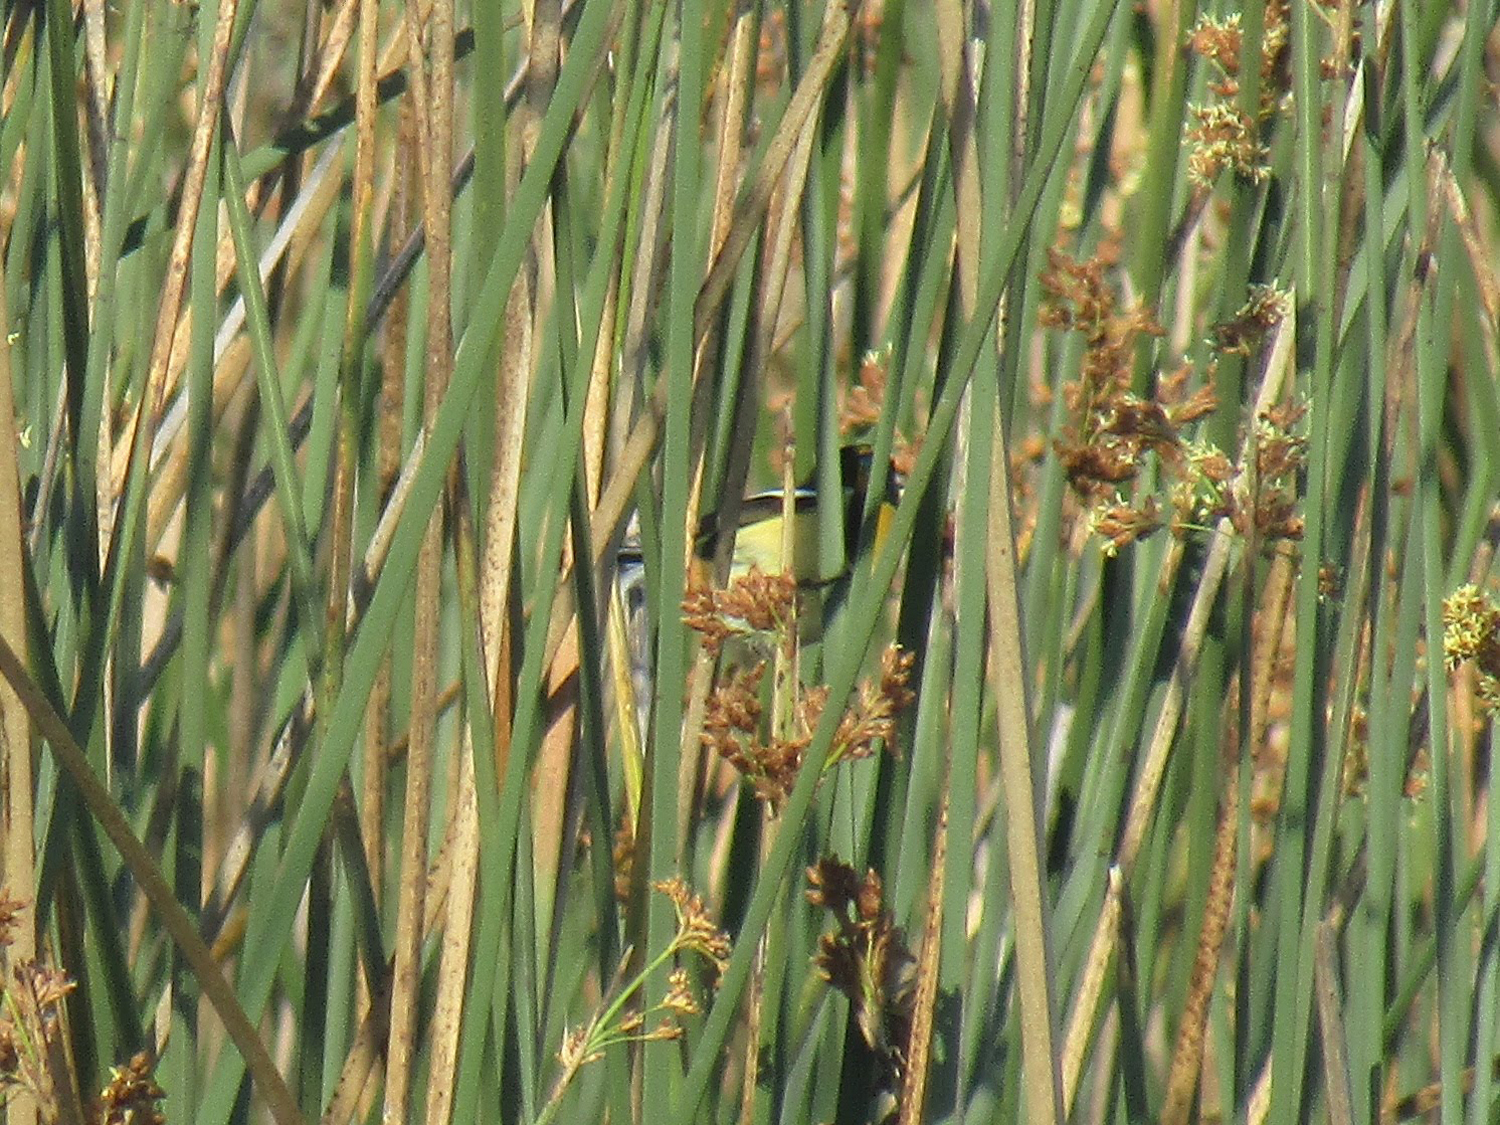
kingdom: Animalia
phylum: Chordata
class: Aves
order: Passeriformes
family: Tyrannidae
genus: Tachuris
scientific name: Tachuris rubrigastra
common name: Many-colored rush tyrant
